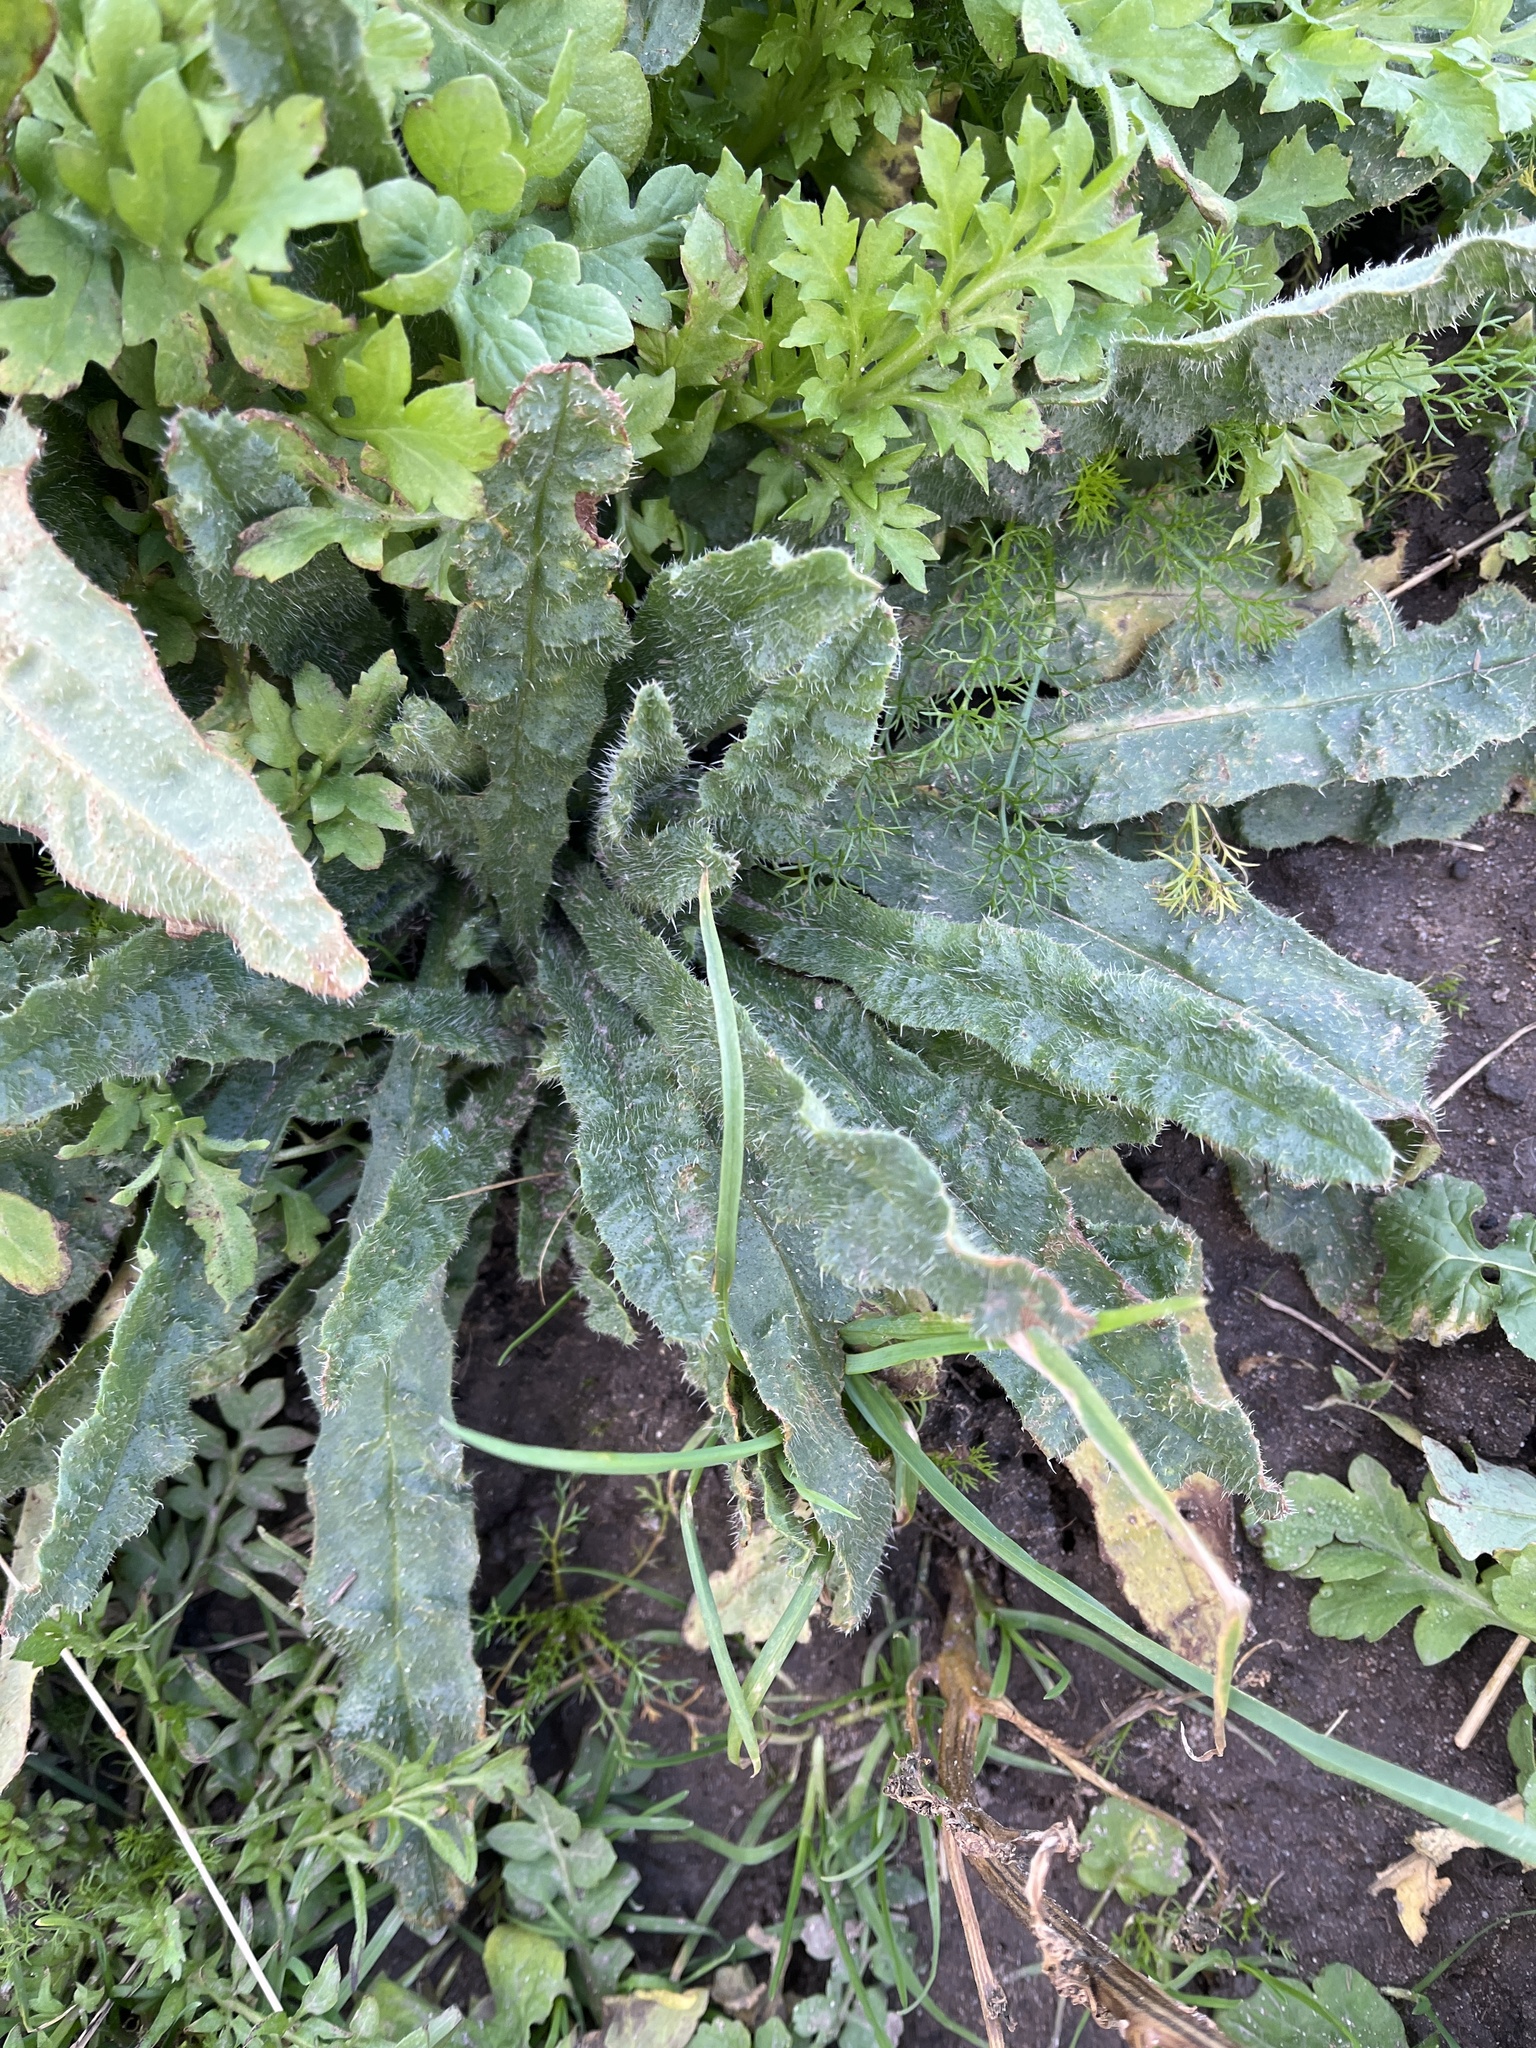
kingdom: Plantae
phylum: Tracheophyta
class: Magnoliopsida
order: Boraginales
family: Boraginaceae
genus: Lycopsis
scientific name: Lycopsis arvensis
